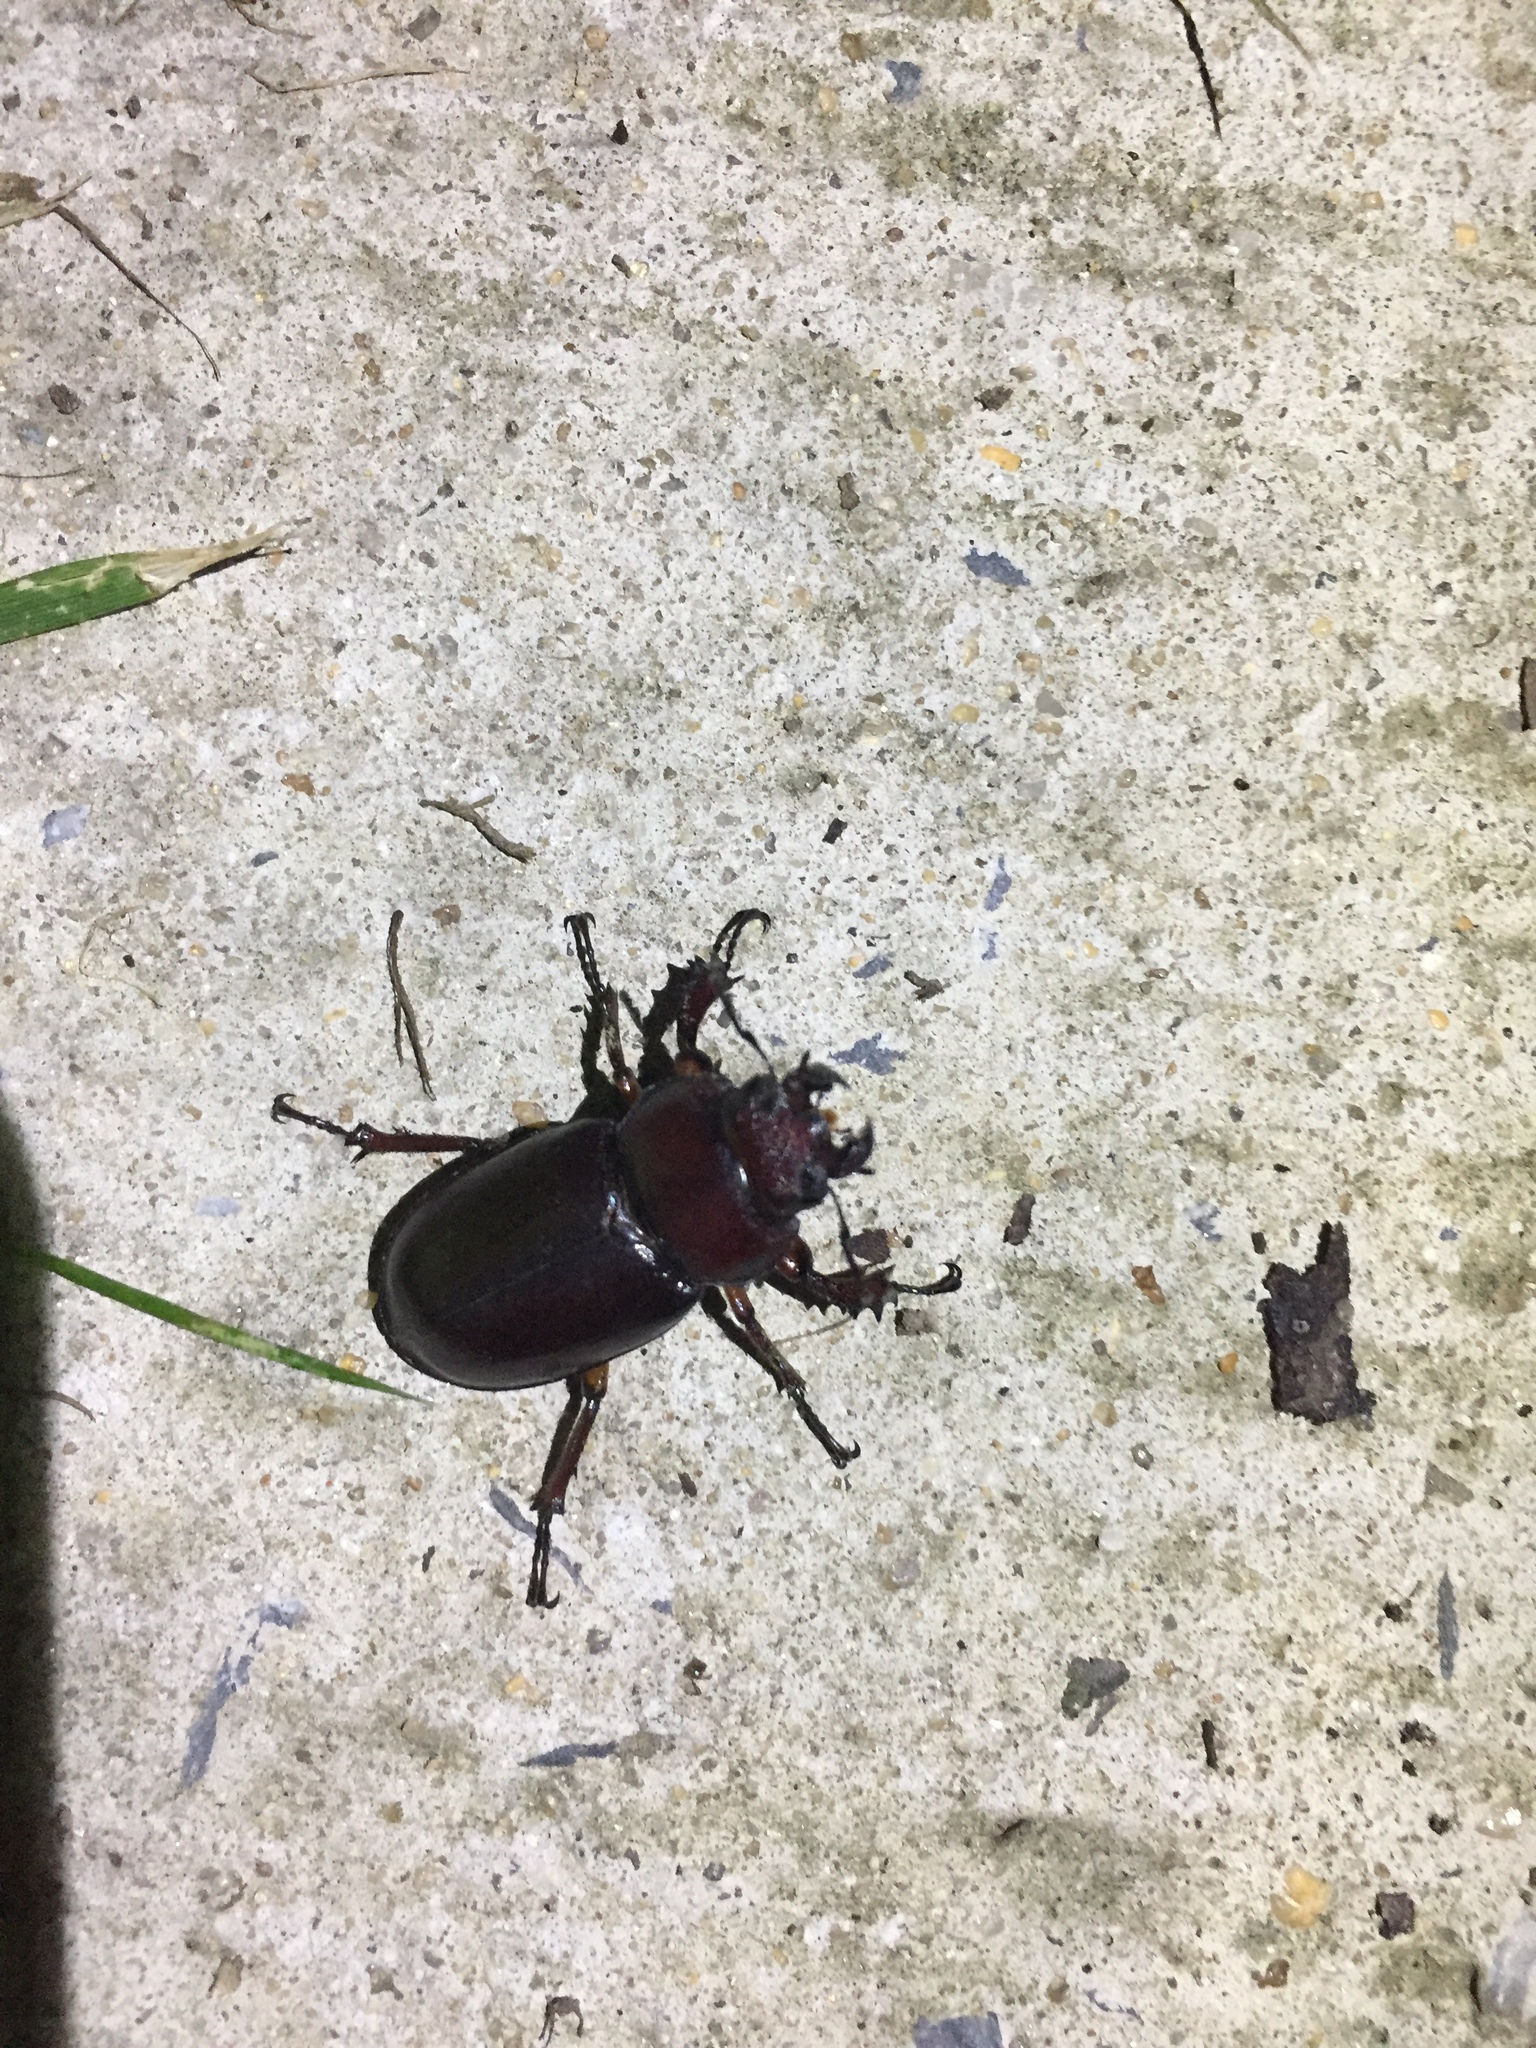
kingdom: Animalia
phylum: Arthropoda
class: Insecta
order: Coleoptera
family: Lucanidae
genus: Lucanus
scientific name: Lucanus capreolus
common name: Stag beetle
